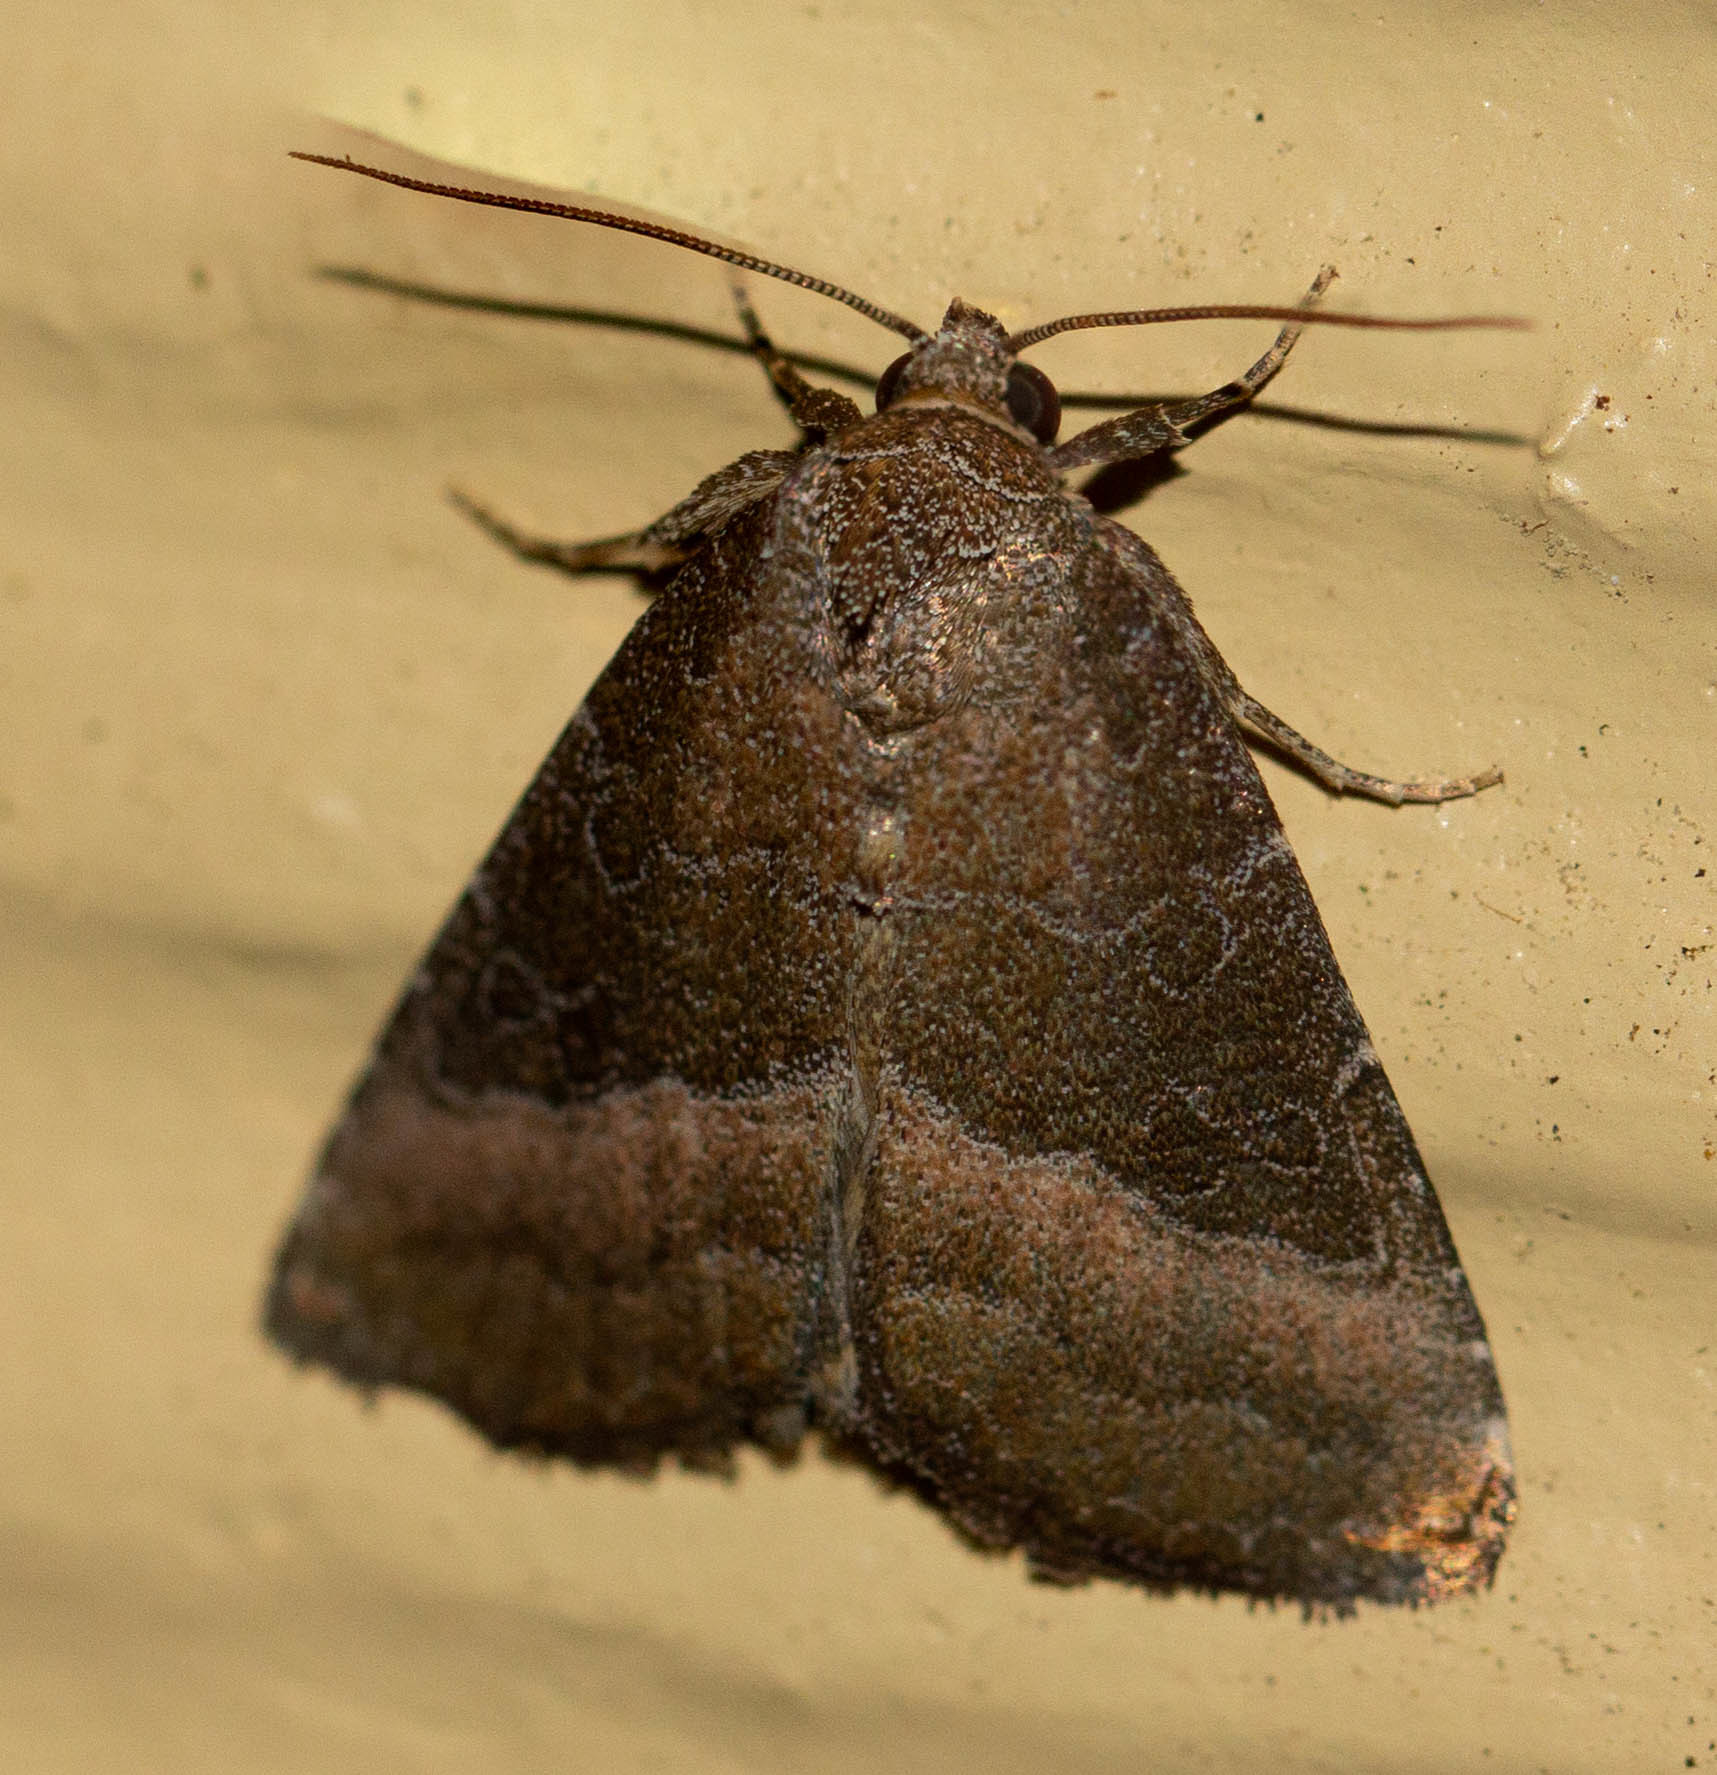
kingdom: Animalia
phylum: Arthropoda
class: Insecta
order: Lepidoptera
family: Noctuidae
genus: Ogdoconta
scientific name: Ogdoconta cinereola
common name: Common pinkband
